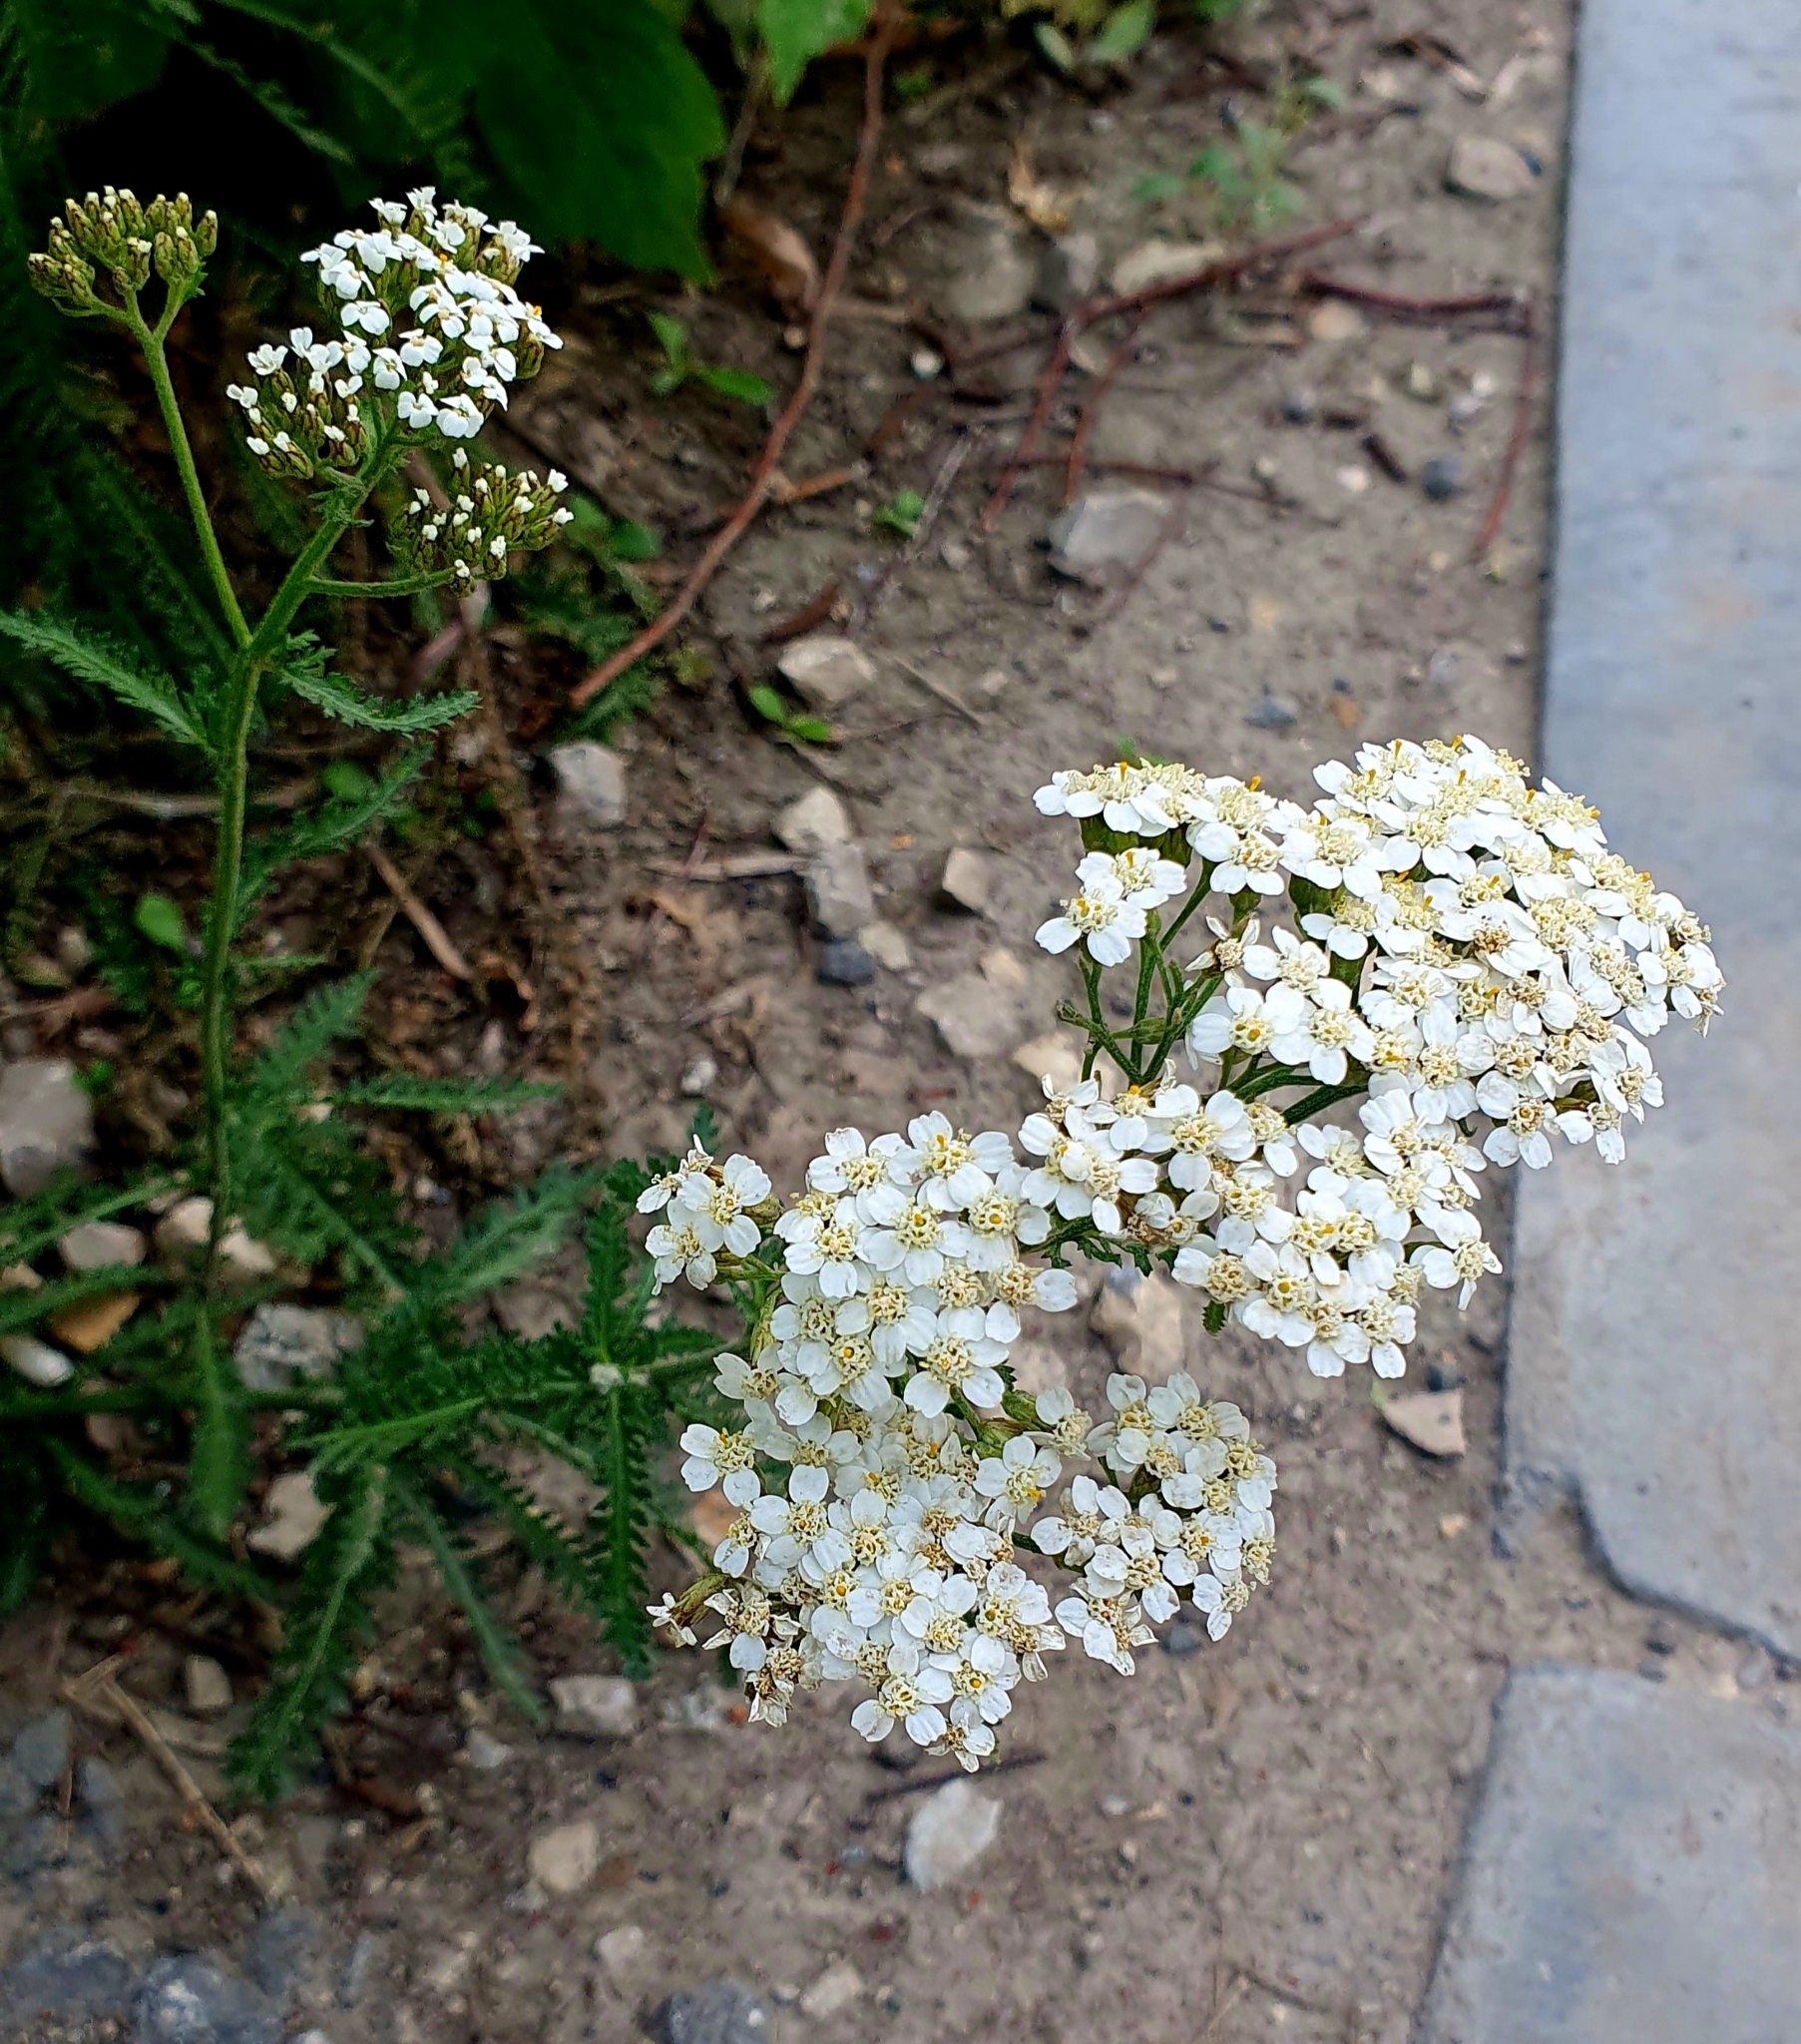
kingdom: Plantae
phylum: Tracheophyta
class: Magnoliopsida
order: Asterales
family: Asteraceae
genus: Achillea
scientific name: Achillea millefolium
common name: Yarrow
